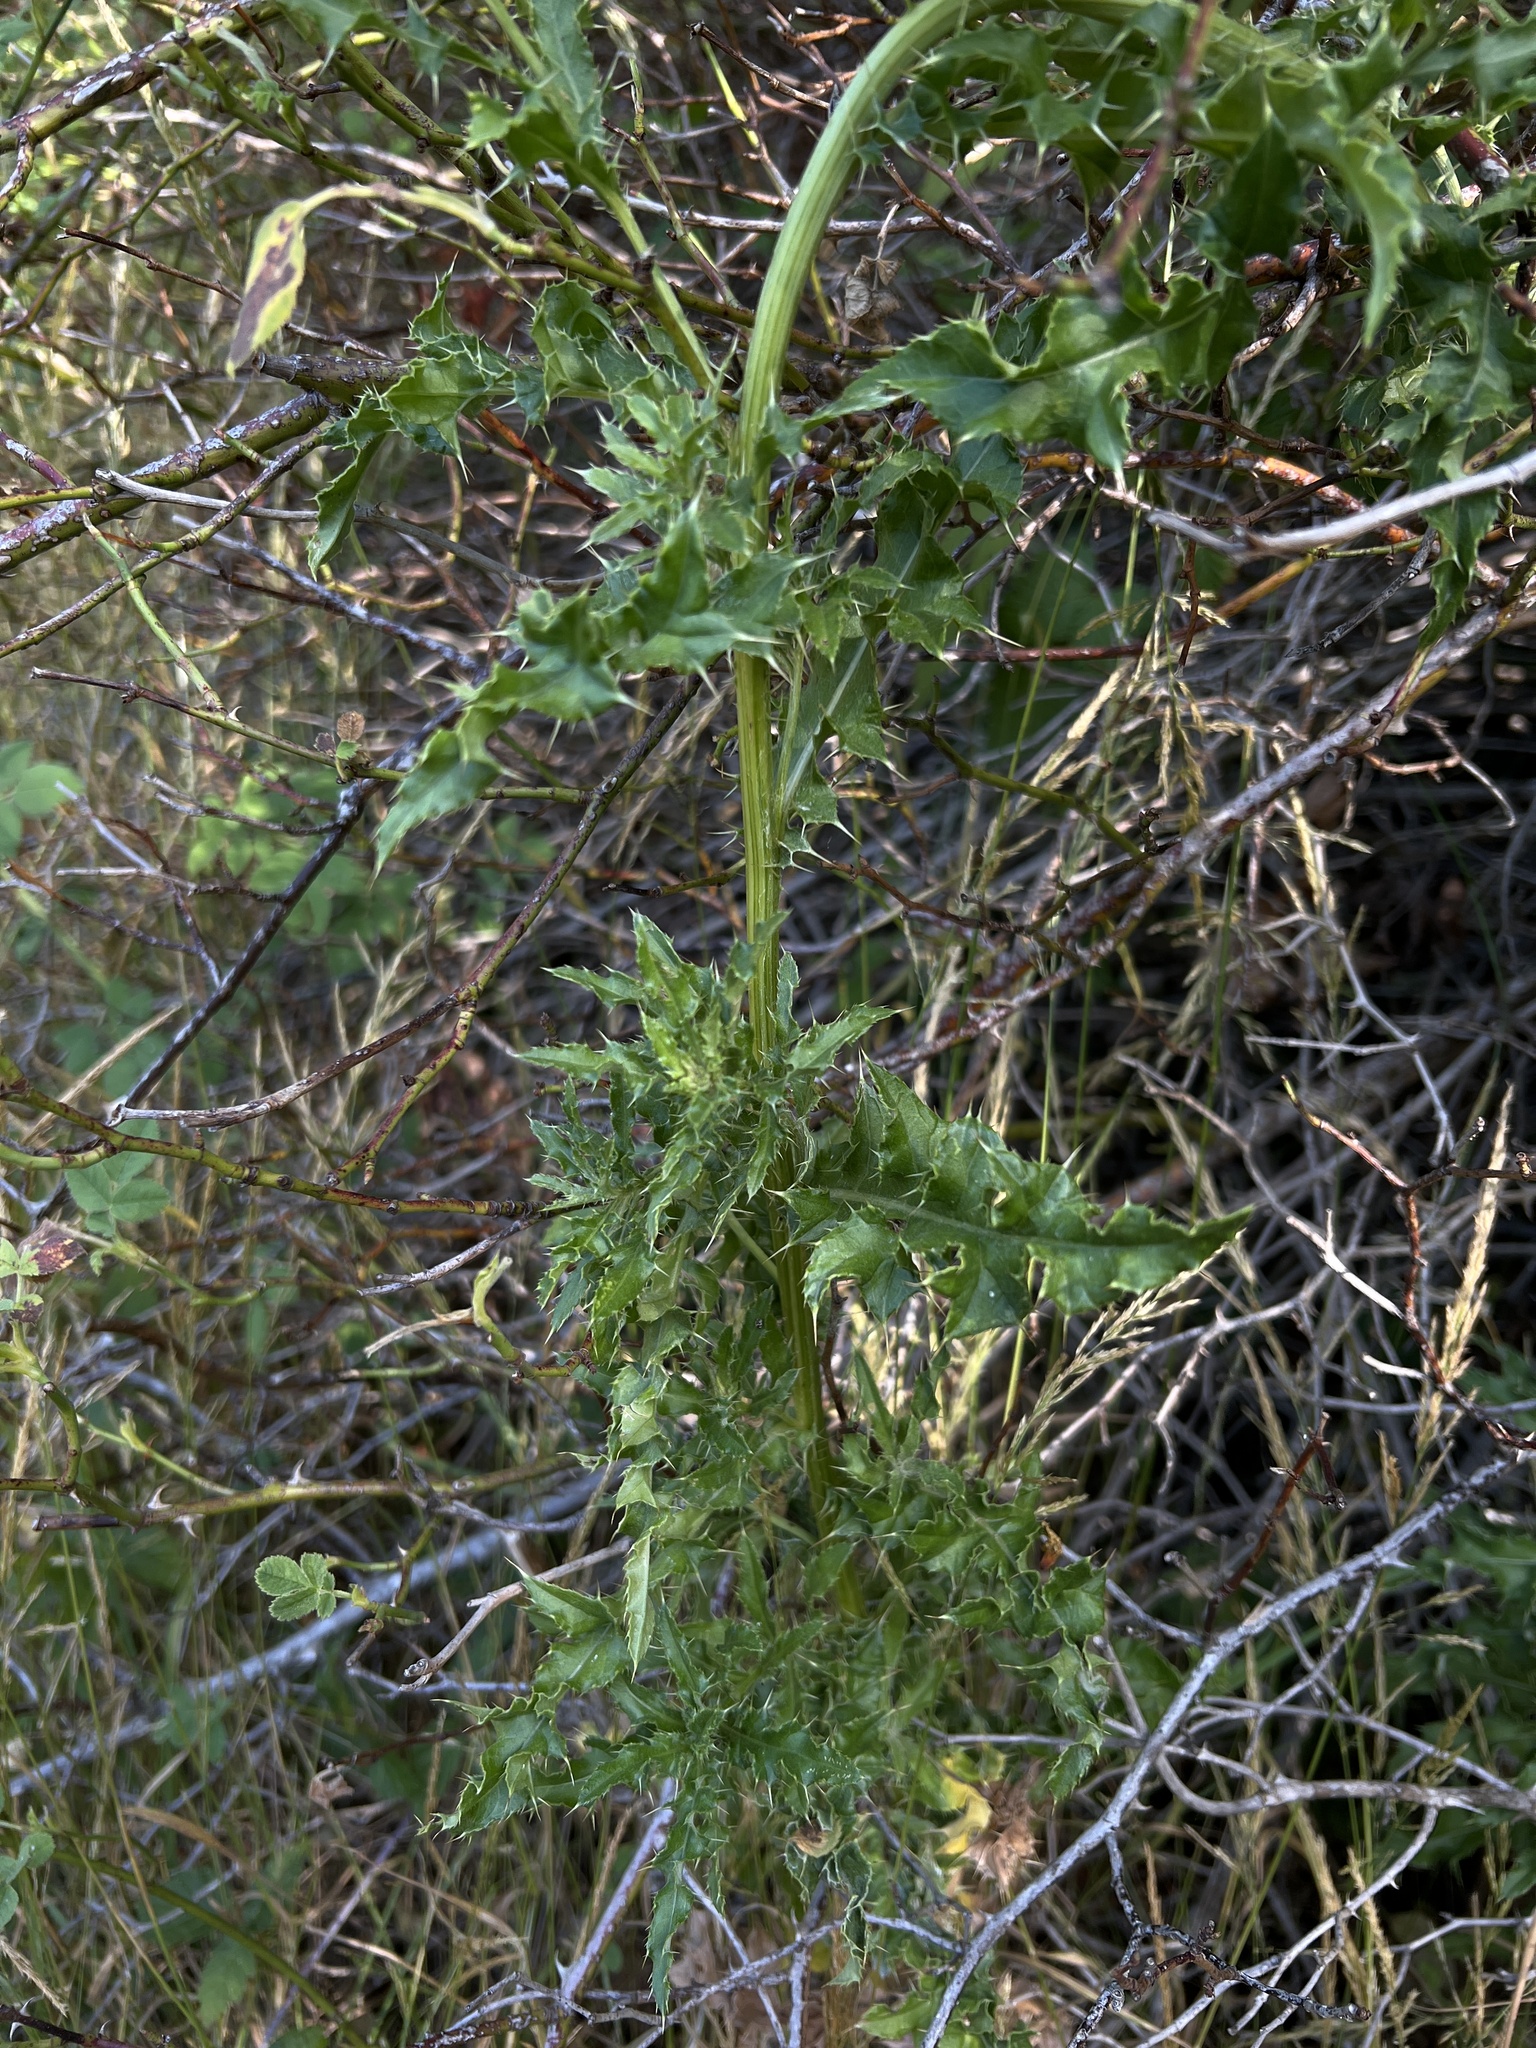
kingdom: Plantae
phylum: Tracheophyta
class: Magnoliopsida
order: Asterales
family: Asteraceae
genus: Cirsium
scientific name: Cirsium arvense
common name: Creeping thistle
